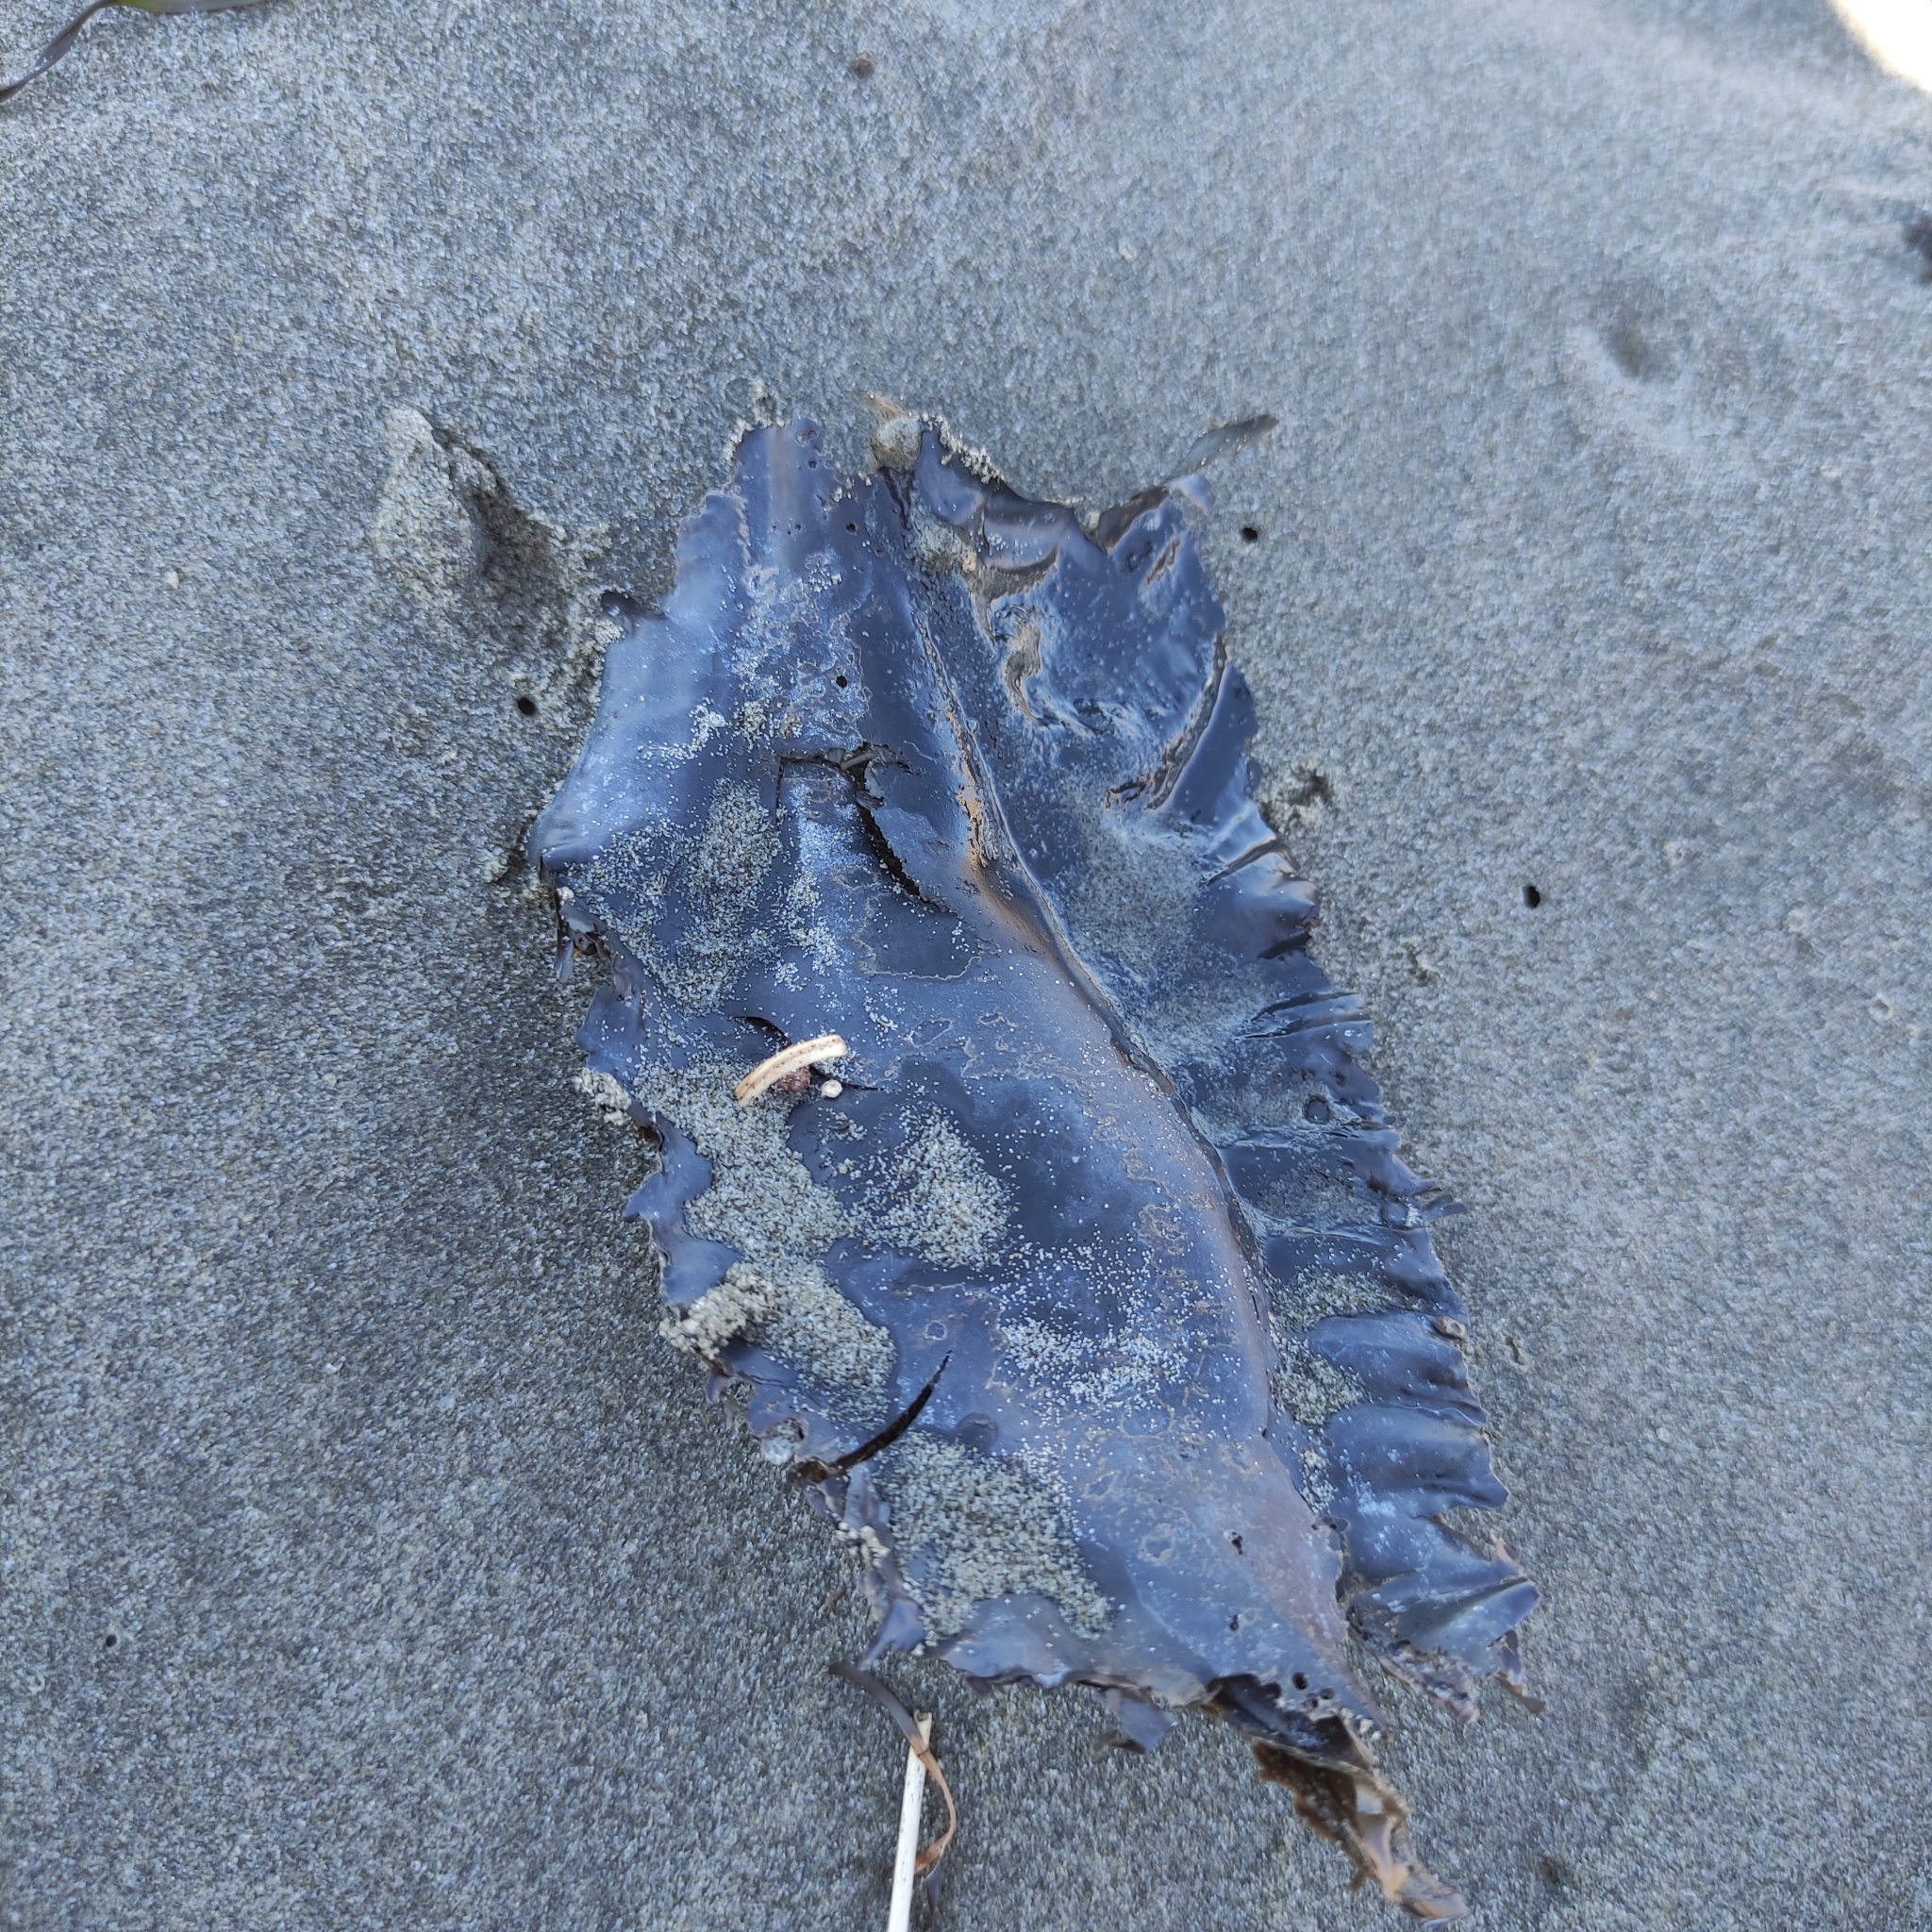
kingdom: Animalia
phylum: Chordata
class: Holocephali
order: Chimaeriformes
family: Callorhinchidae
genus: Callorhinchus
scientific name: Callorhinchus milii
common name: Elephant fish
